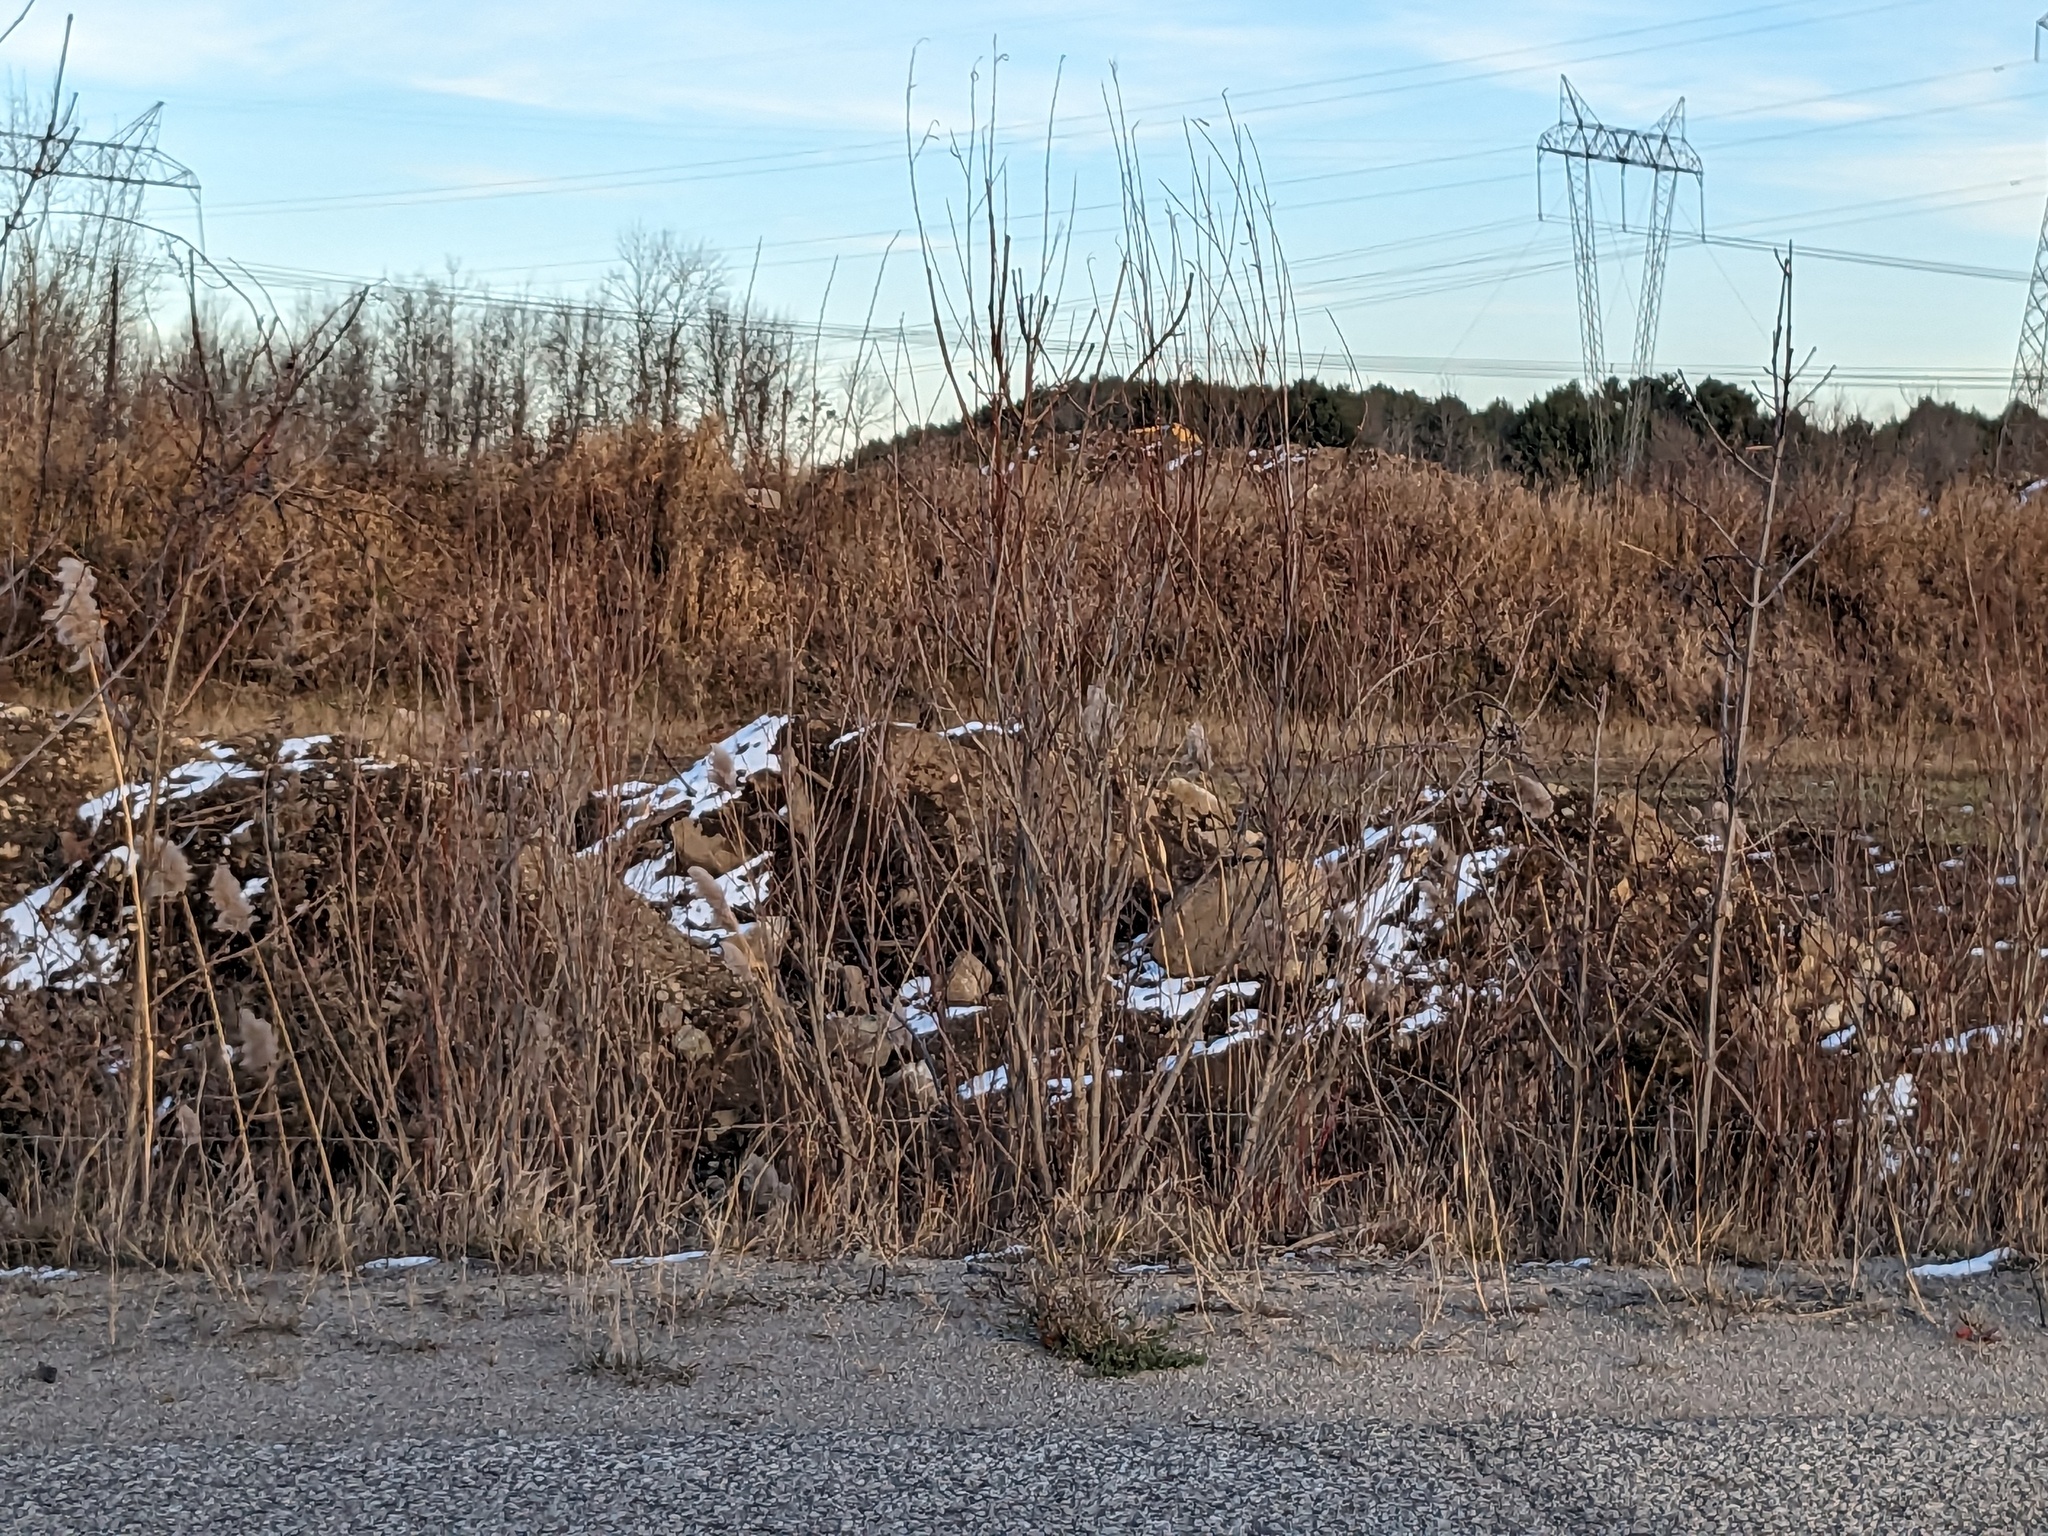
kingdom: Plantae
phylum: Tracheophyta
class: Liliopsida
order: Poales
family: Poaceae
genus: Phragmites
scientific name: Phragmites australis
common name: Common reed
